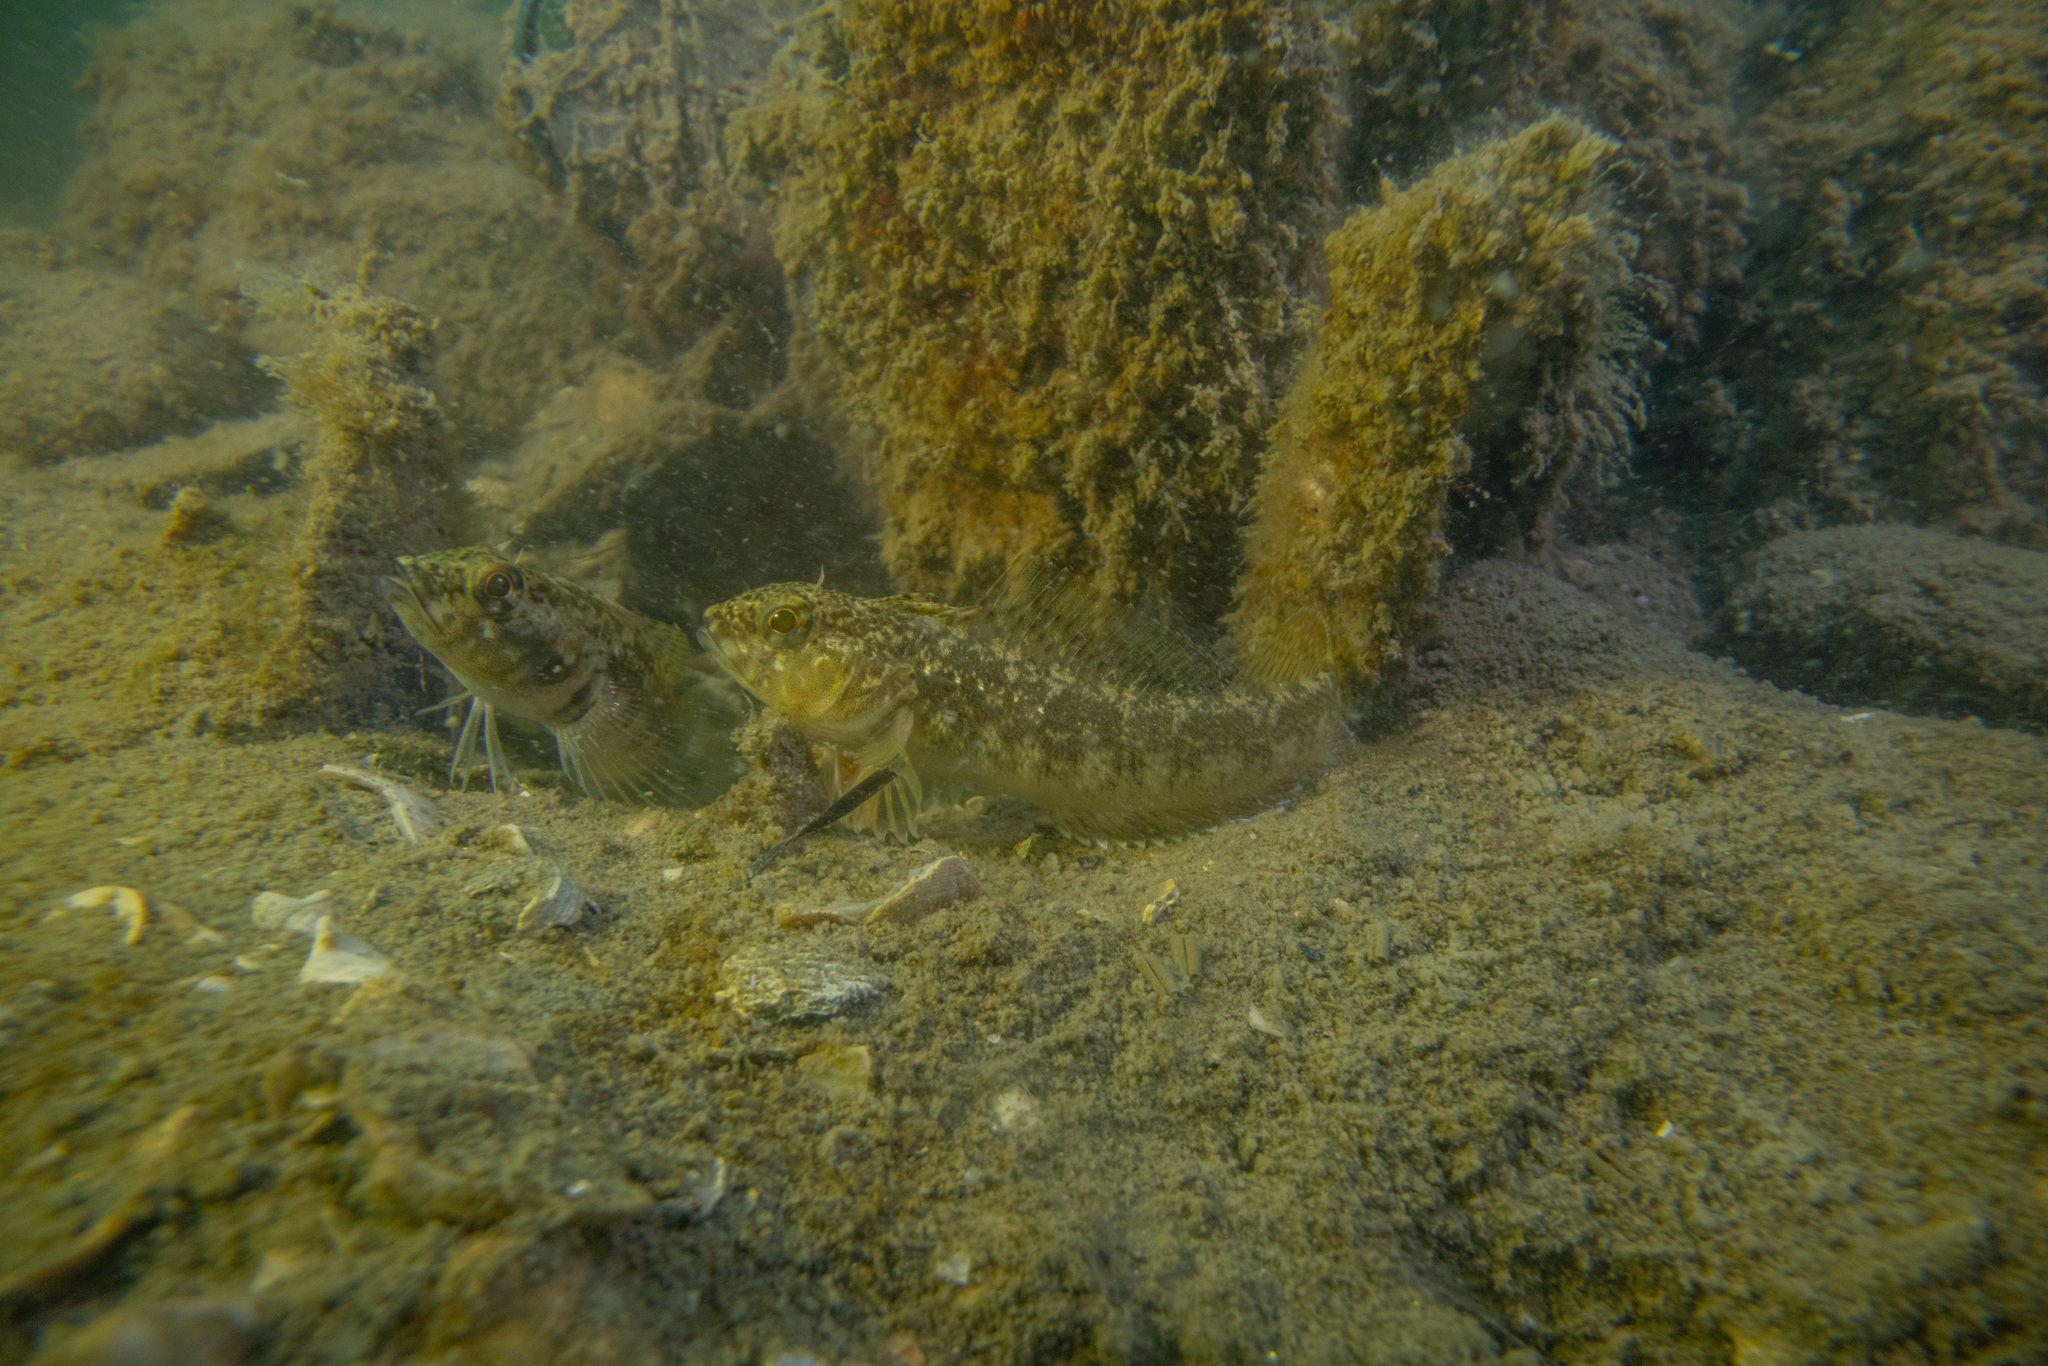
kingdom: Animalia
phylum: Chordata
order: Perciformes
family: Tripterygiidae
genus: Forsterygion
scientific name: Forsterygion capito
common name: Spotted robust triplefin
